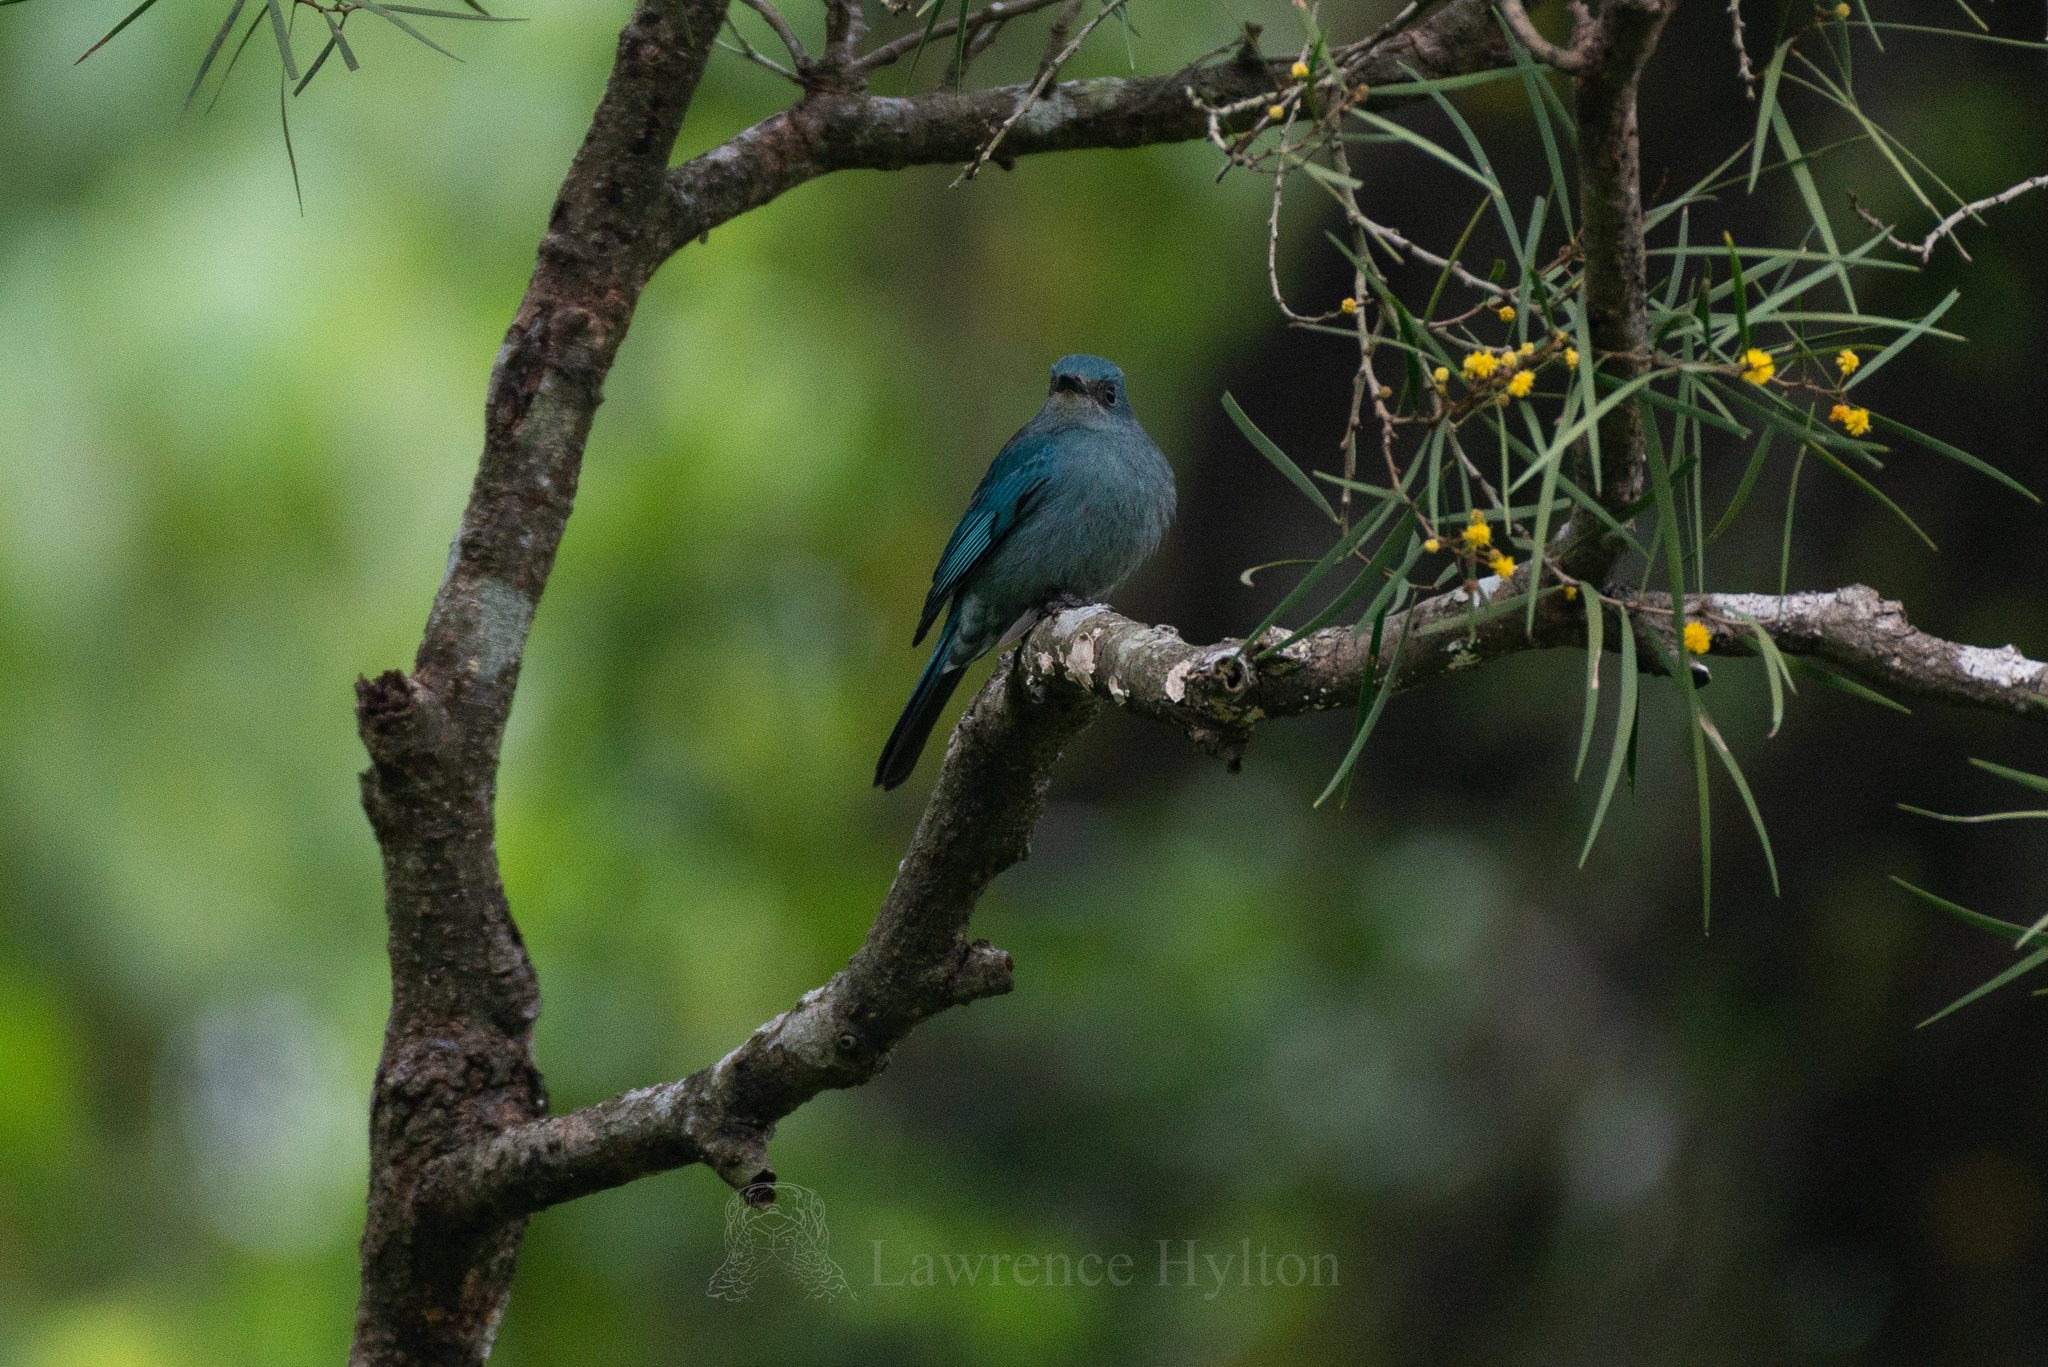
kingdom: Animalia
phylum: Chordata
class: Aves
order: Passeriformes
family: Muscicapidae
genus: Eumyias
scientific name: Eumyias thalassinus
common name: Verditer flycatcher
